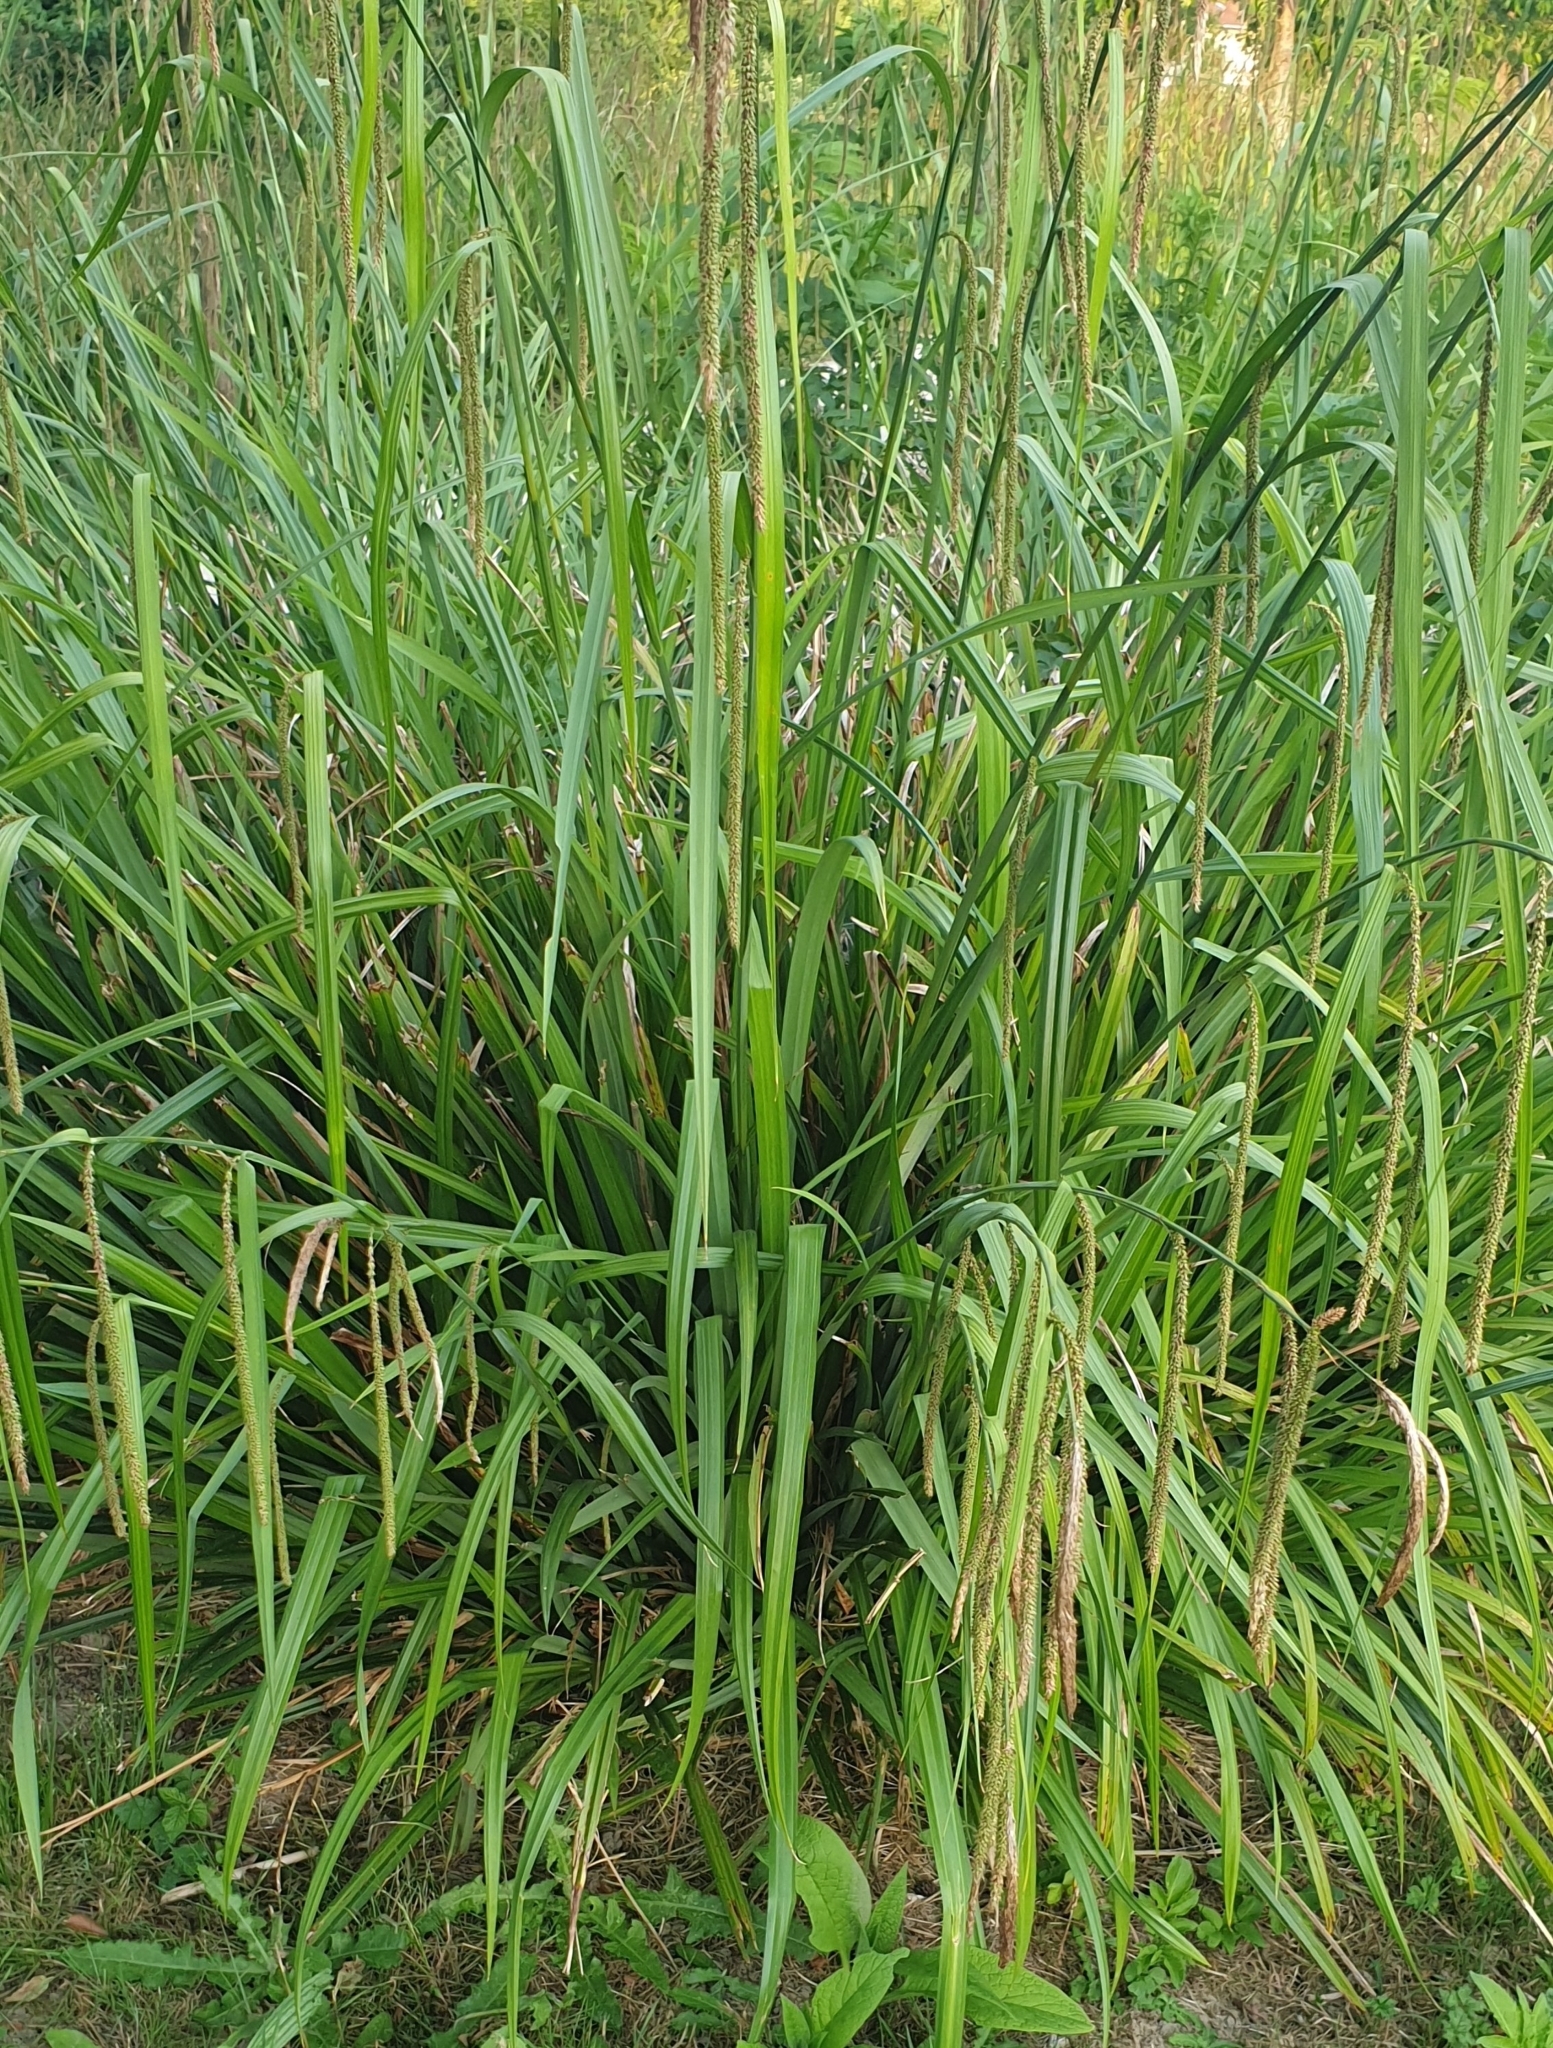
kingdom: Plantae
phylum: Tracheophyta
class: Liliopsida
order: Poales
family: Cyperaceae
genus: Carex
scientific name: Carex pendula
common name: Pendulous sedge
